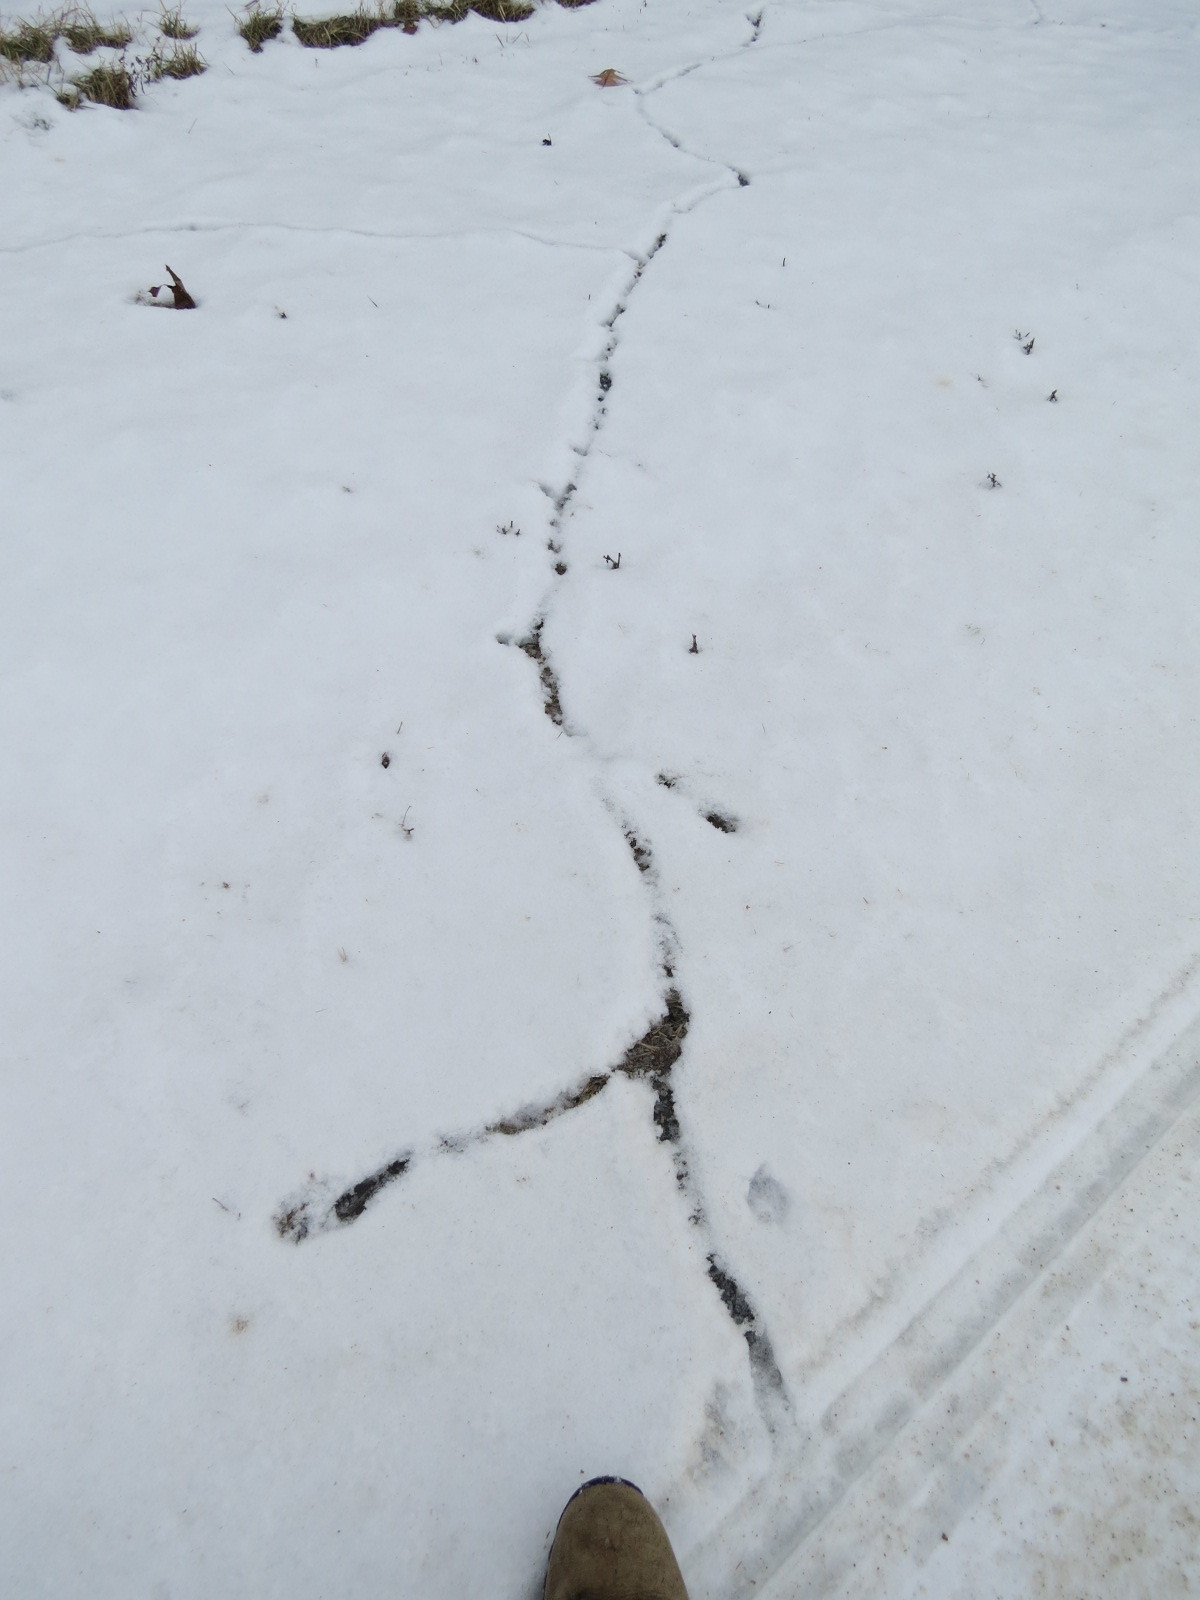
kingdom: Animalia
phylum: Chordata
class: Mammalia
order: Rodentia
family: Cricetidae
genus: Microtus
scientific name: Microtus pennsylvanicus
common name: Meadow vole
